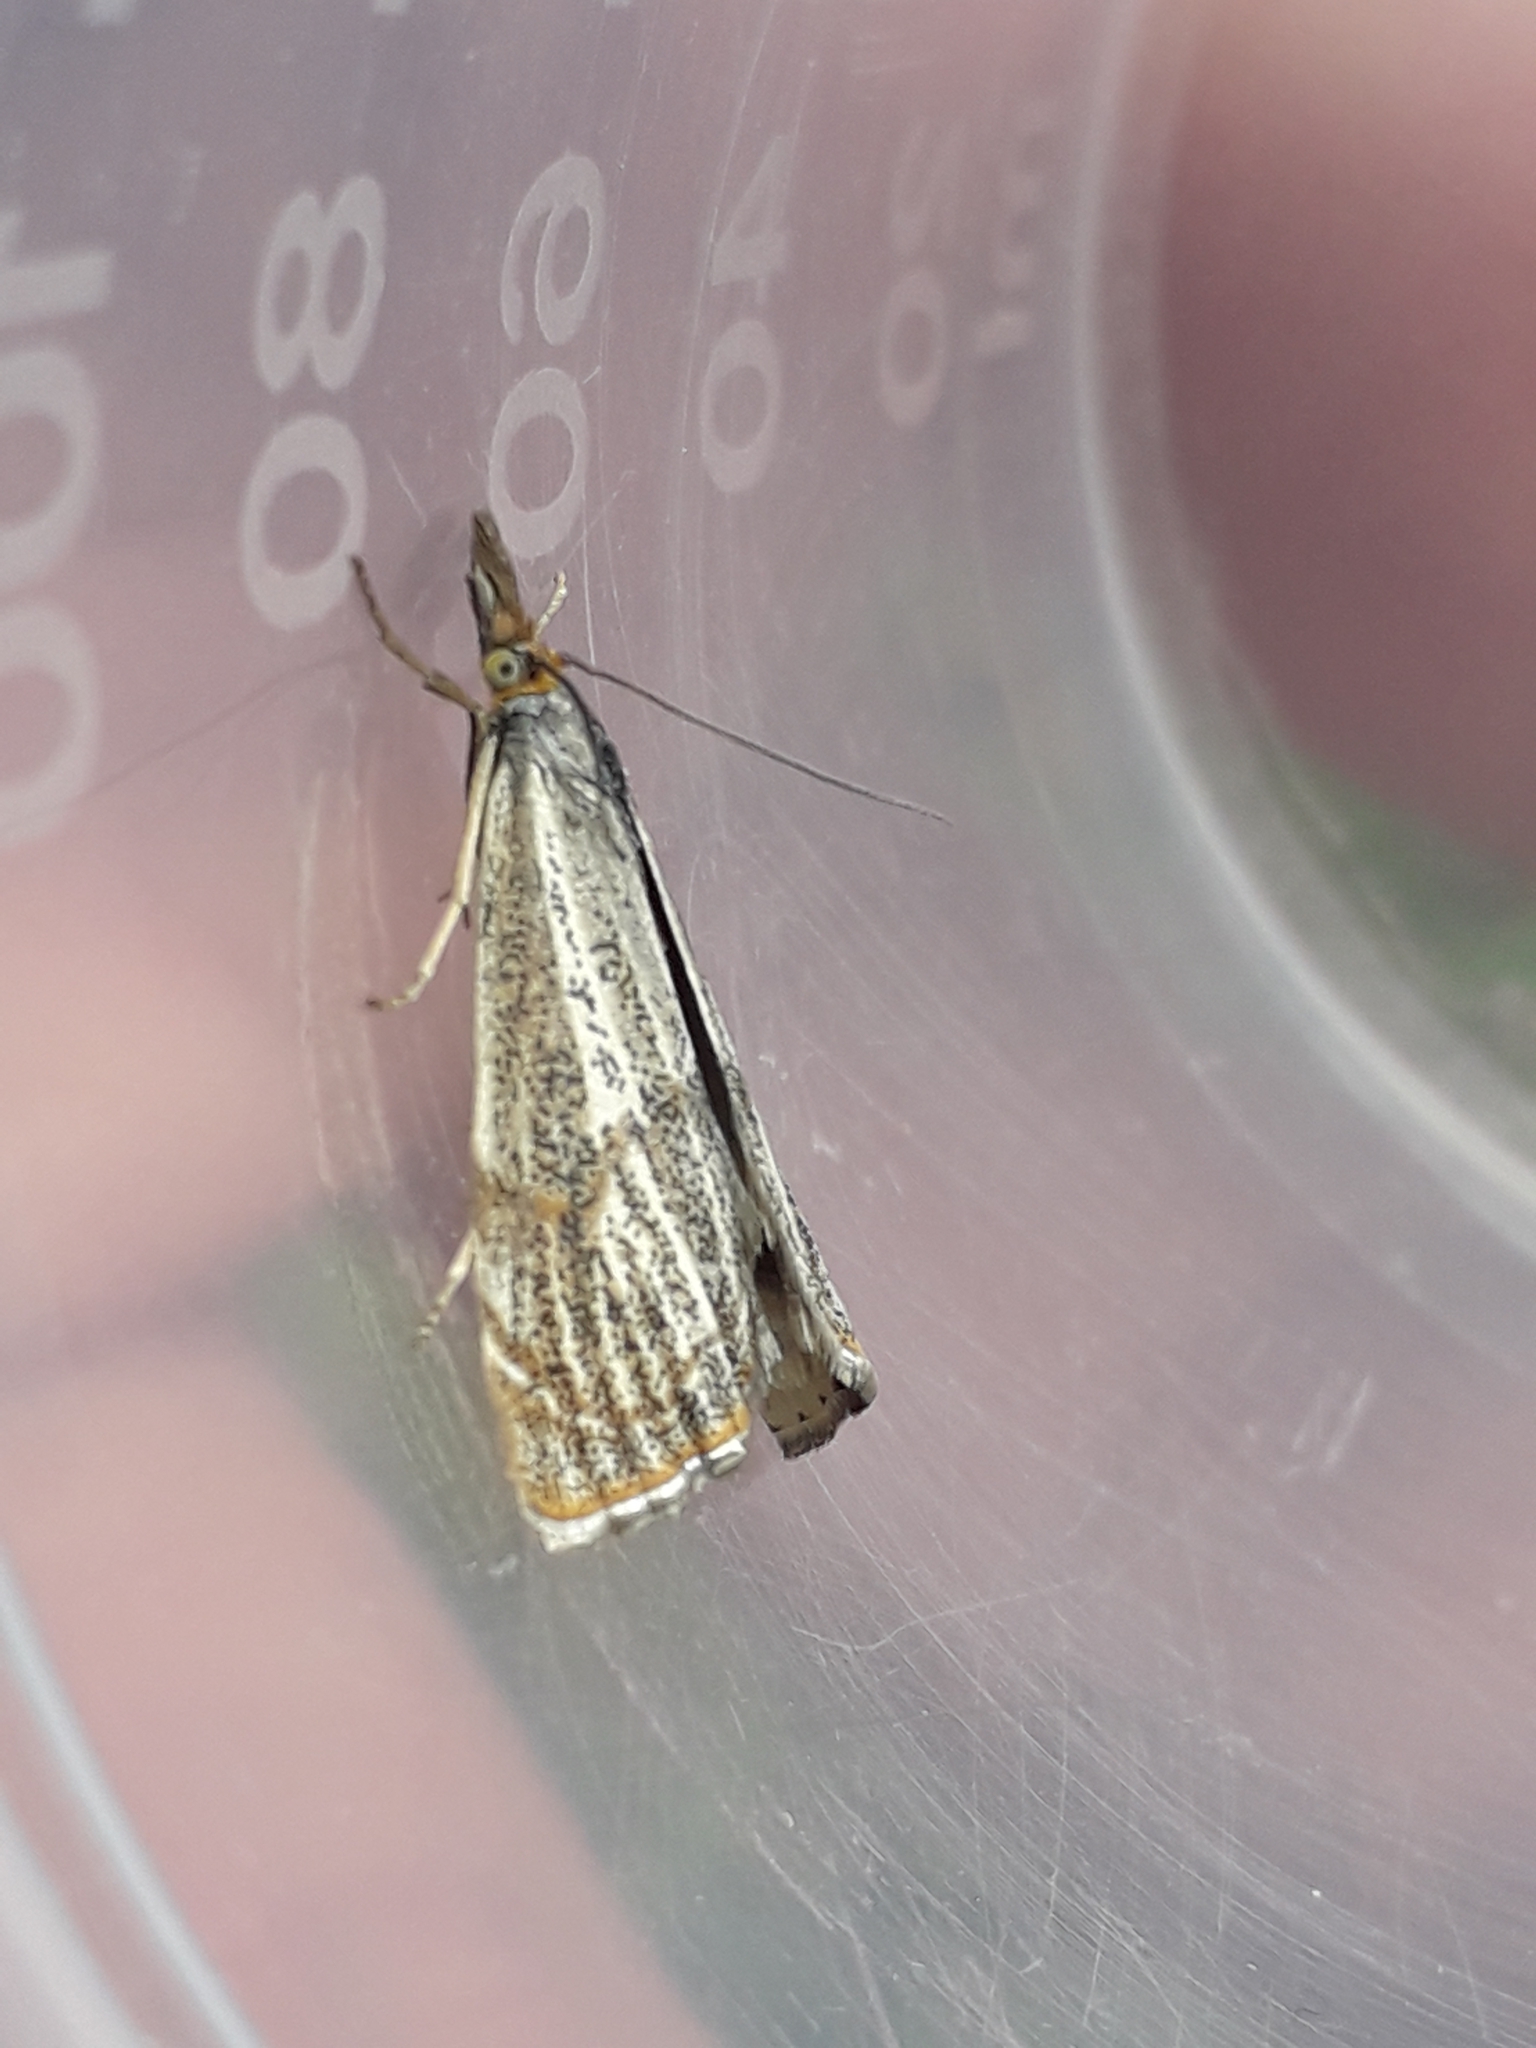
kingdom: Animalia
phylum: Arthropoda
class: Insecta
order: Lepidoptera
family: Crambidae
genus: Thisanotia
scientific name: Thisanotia chrysonuchella
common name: Powdered grass-veneer
